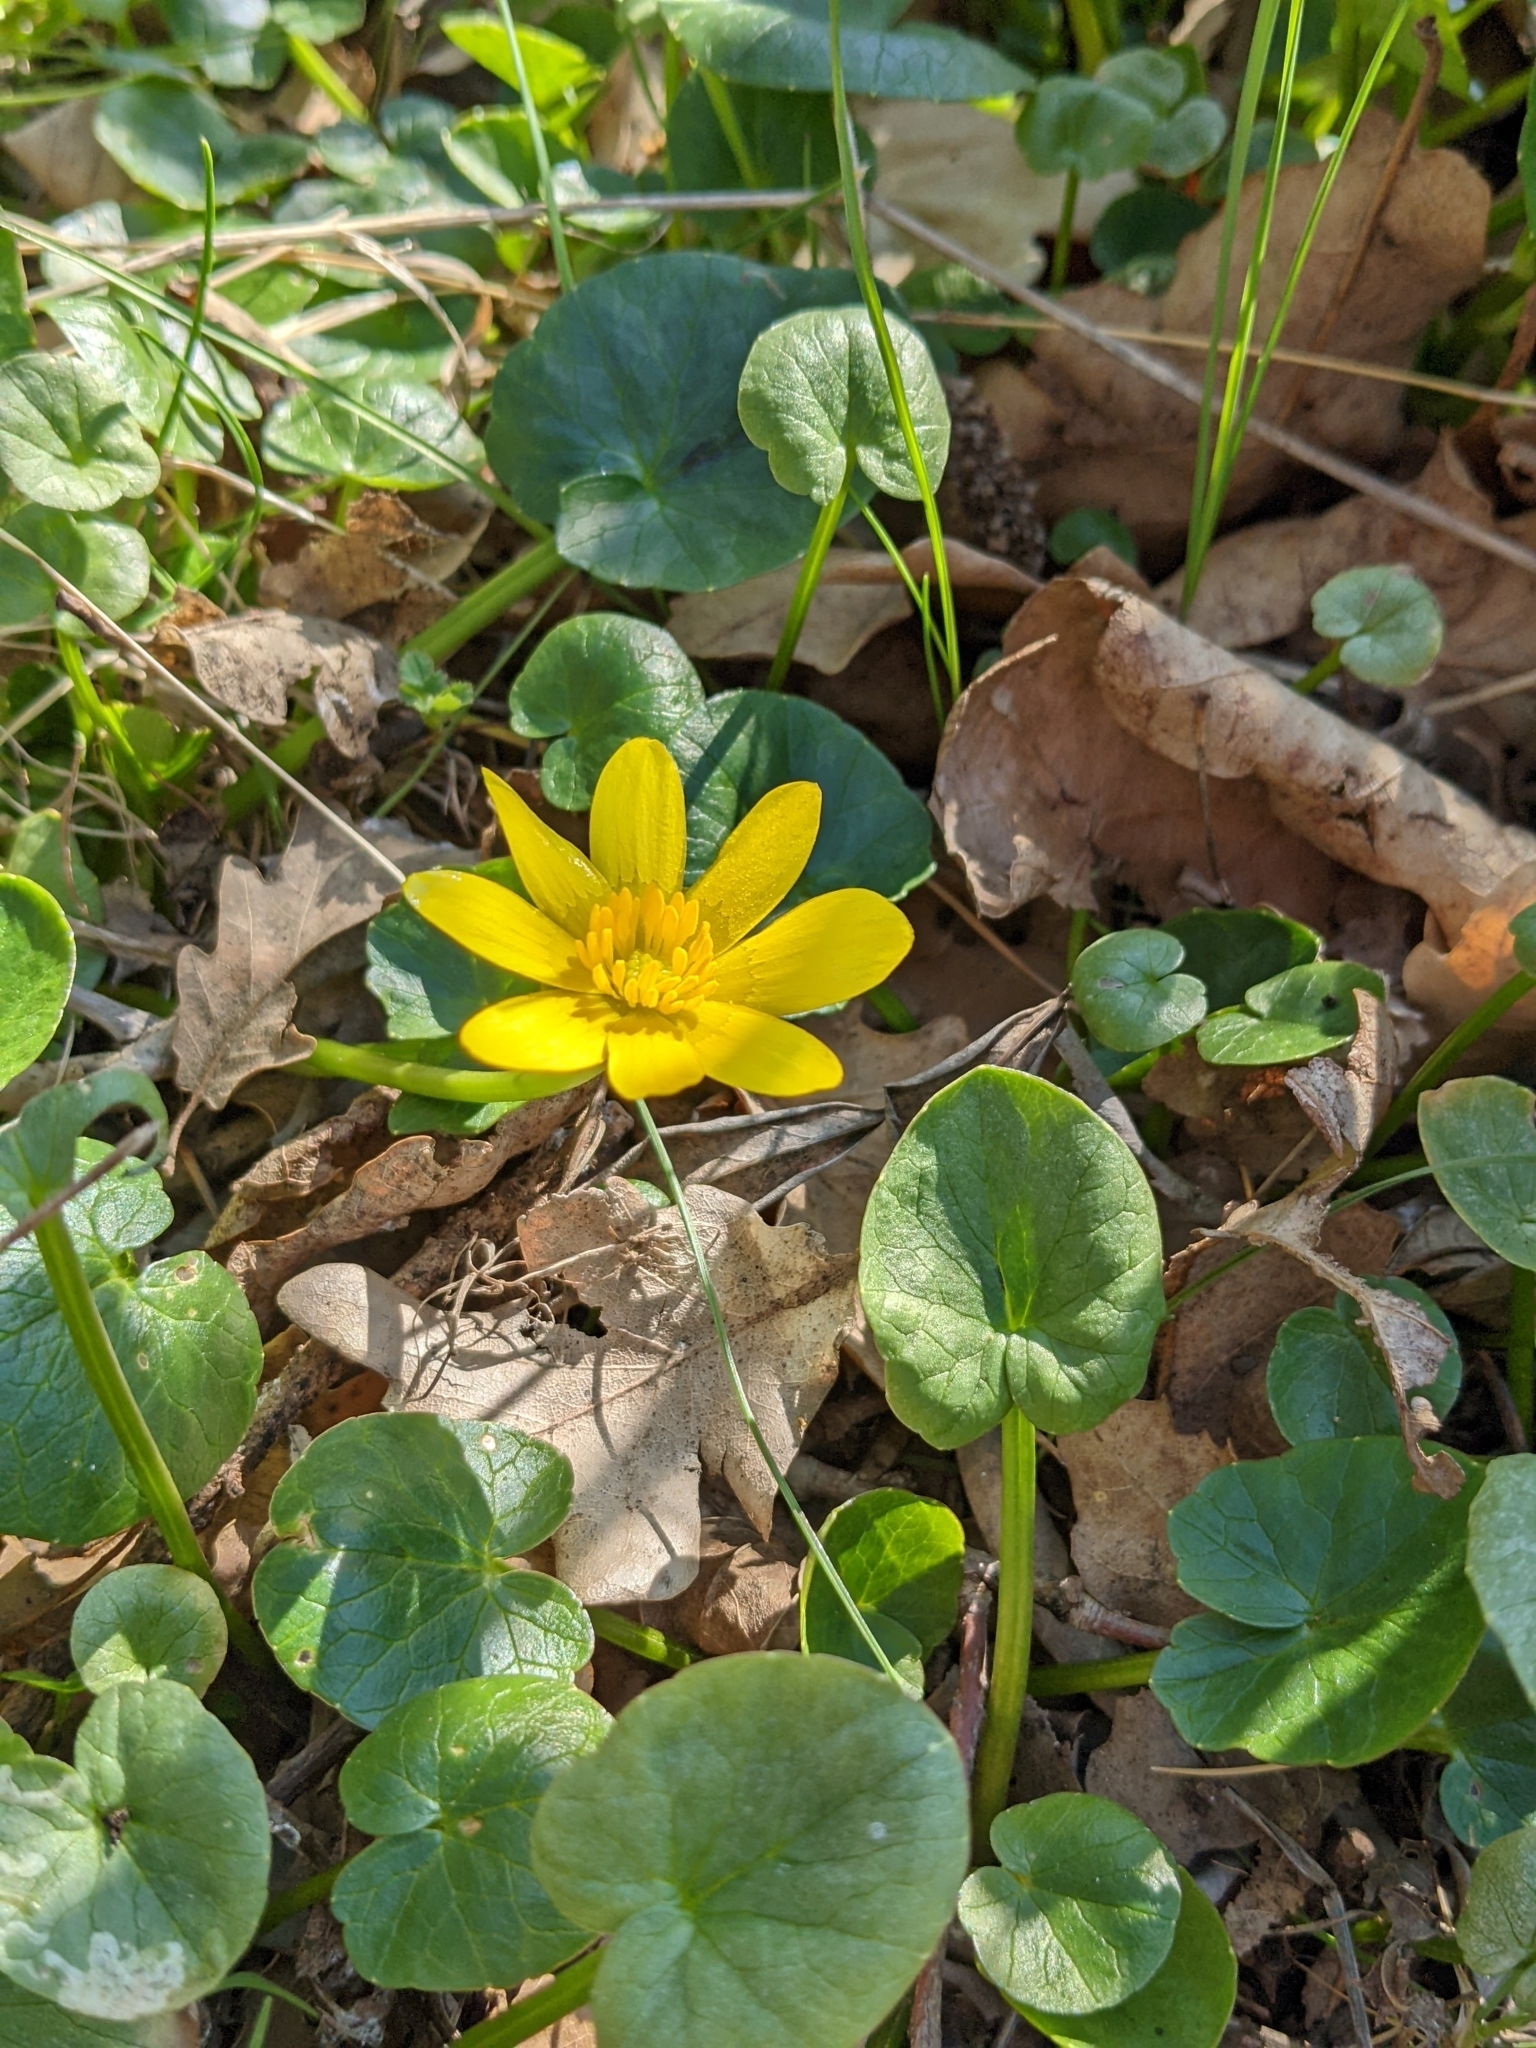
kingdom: Plantae
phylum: Tracheophyta
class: Magnoliopsida
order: Ranunculales
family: Ranunculaceae
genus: Ficaria
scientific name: Ficaria verna
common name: Lesser celandine
